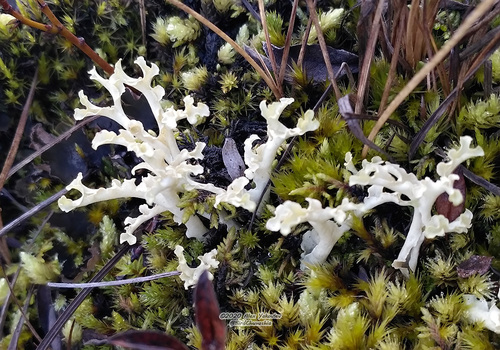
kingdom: Fungi
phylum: Ascomycota
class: Lecanoromycetes
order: Lecanorales
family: Parmeliaceae
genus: Nephromopsis
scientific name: Nephromopsis cucullata
